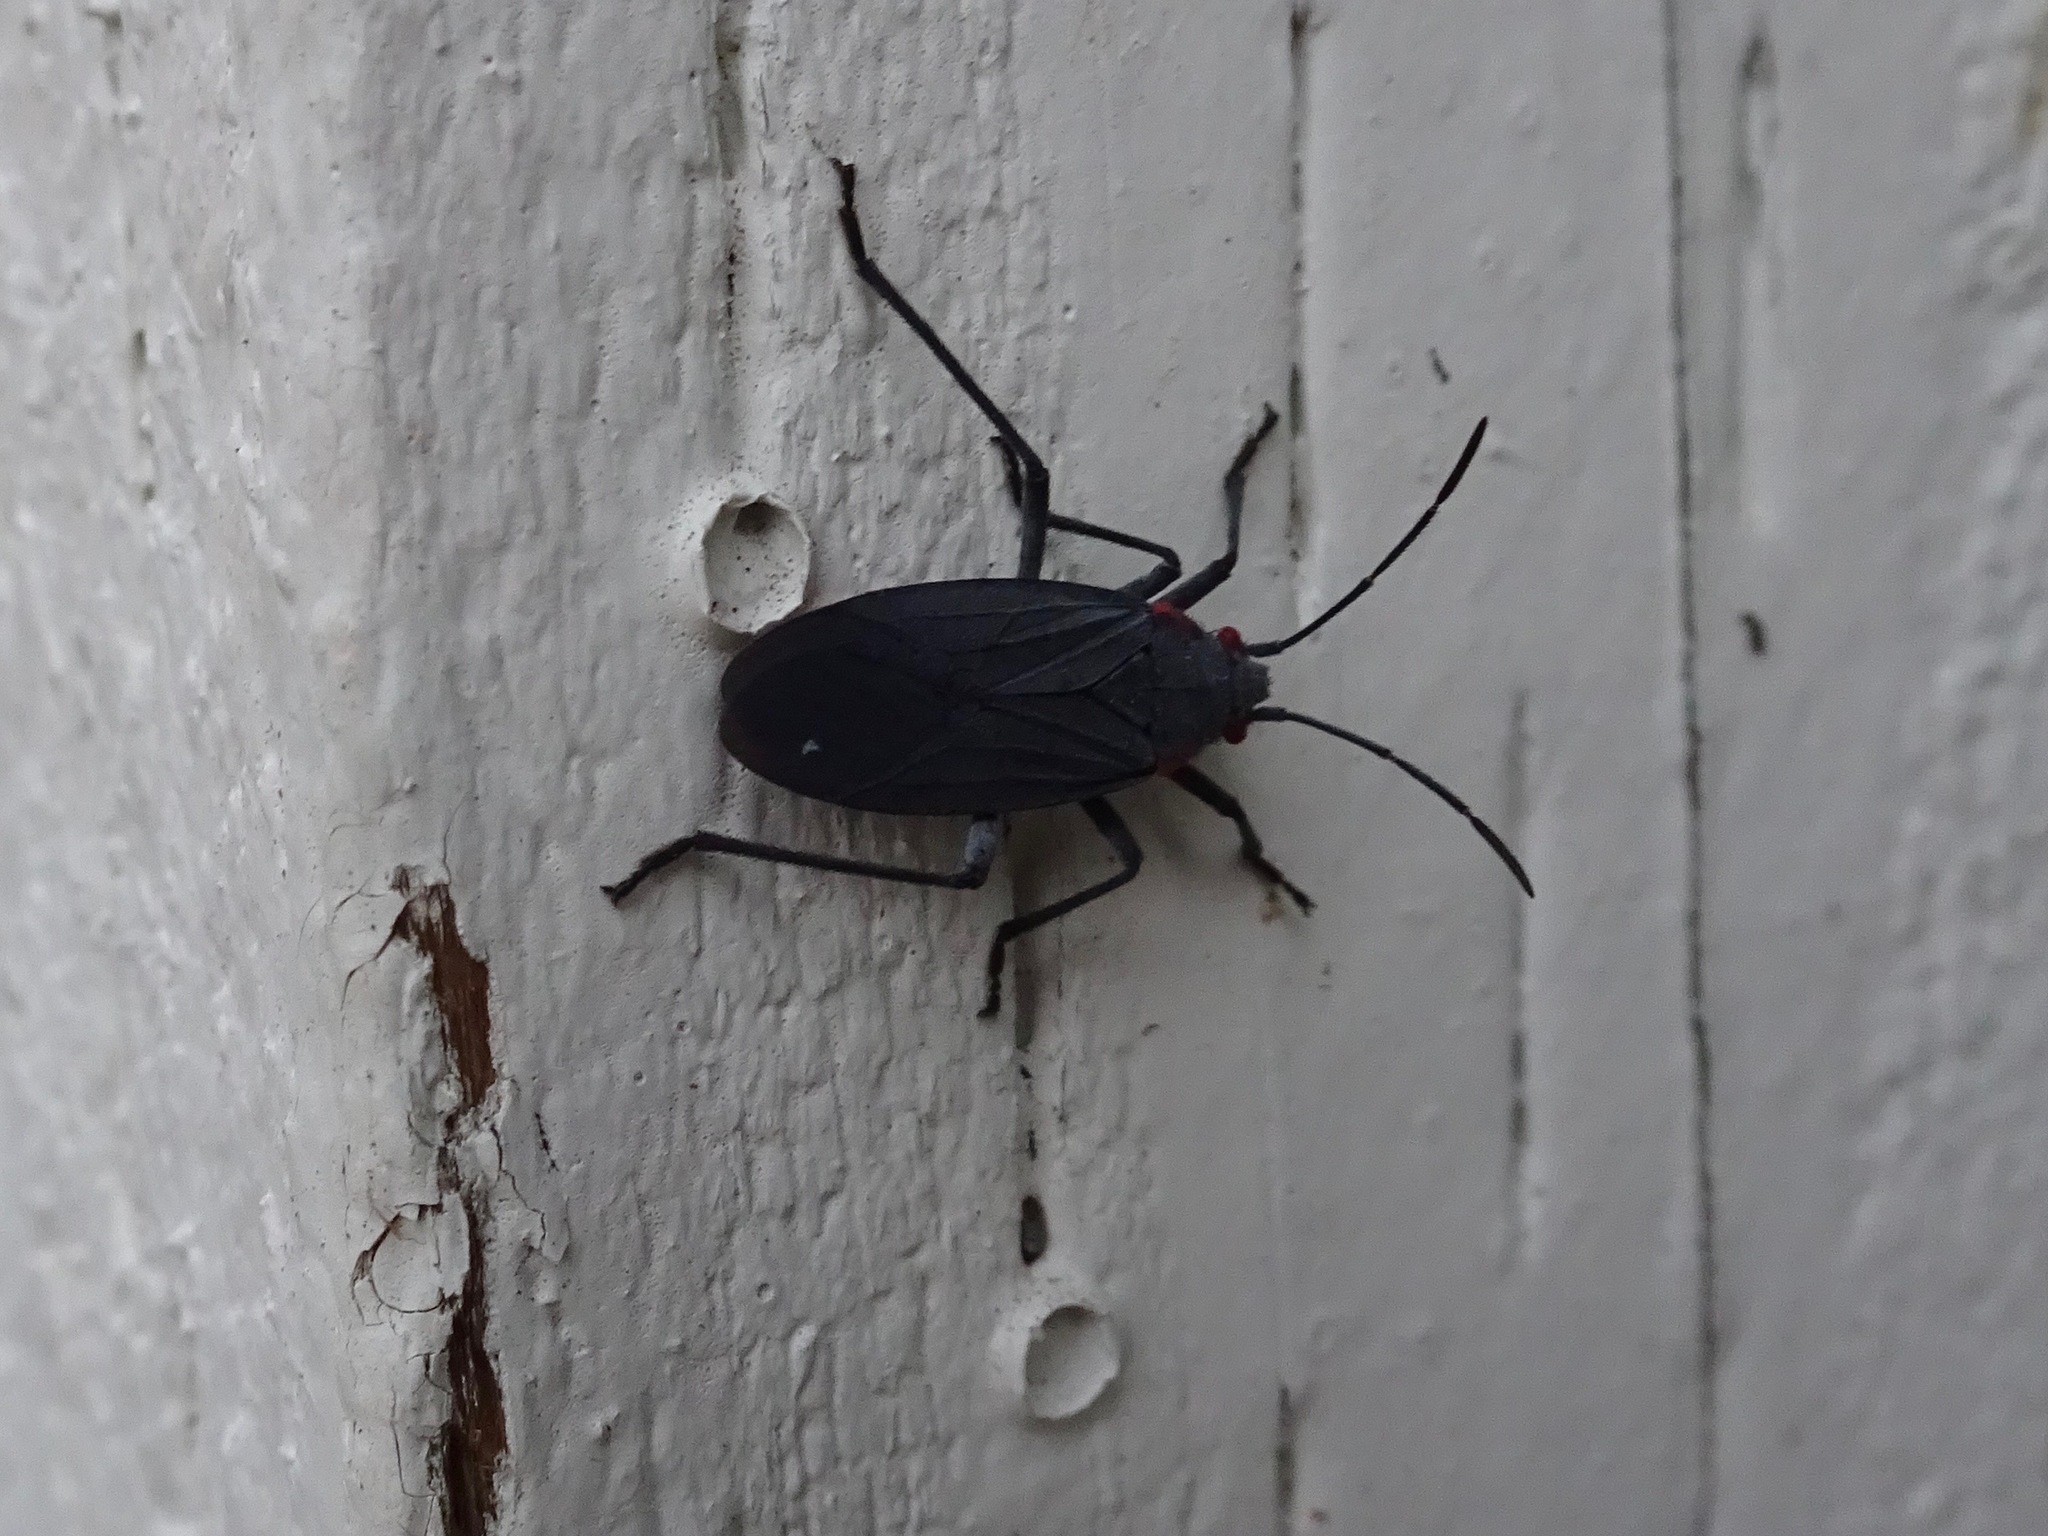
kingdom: Animalia
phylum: Arthropoda
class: Insecta
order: Hemiptera
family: Rhopalidae
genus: Jadera
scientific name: Jadera haematoloma
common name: Red-shouldered bug
